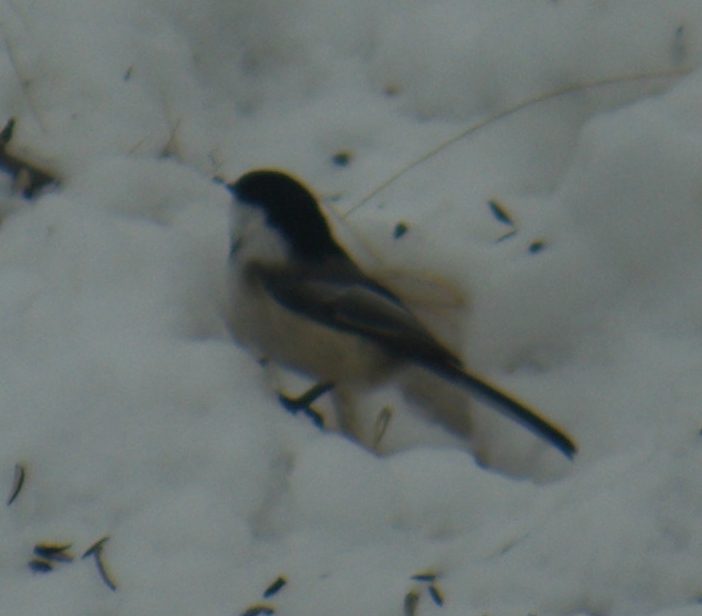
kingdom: Animalia
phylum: Chordata
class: Aves
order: Passeriformes
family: Paridae
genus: Poecile
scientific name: Poecile atricapillus
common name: Black-capped chickadee
